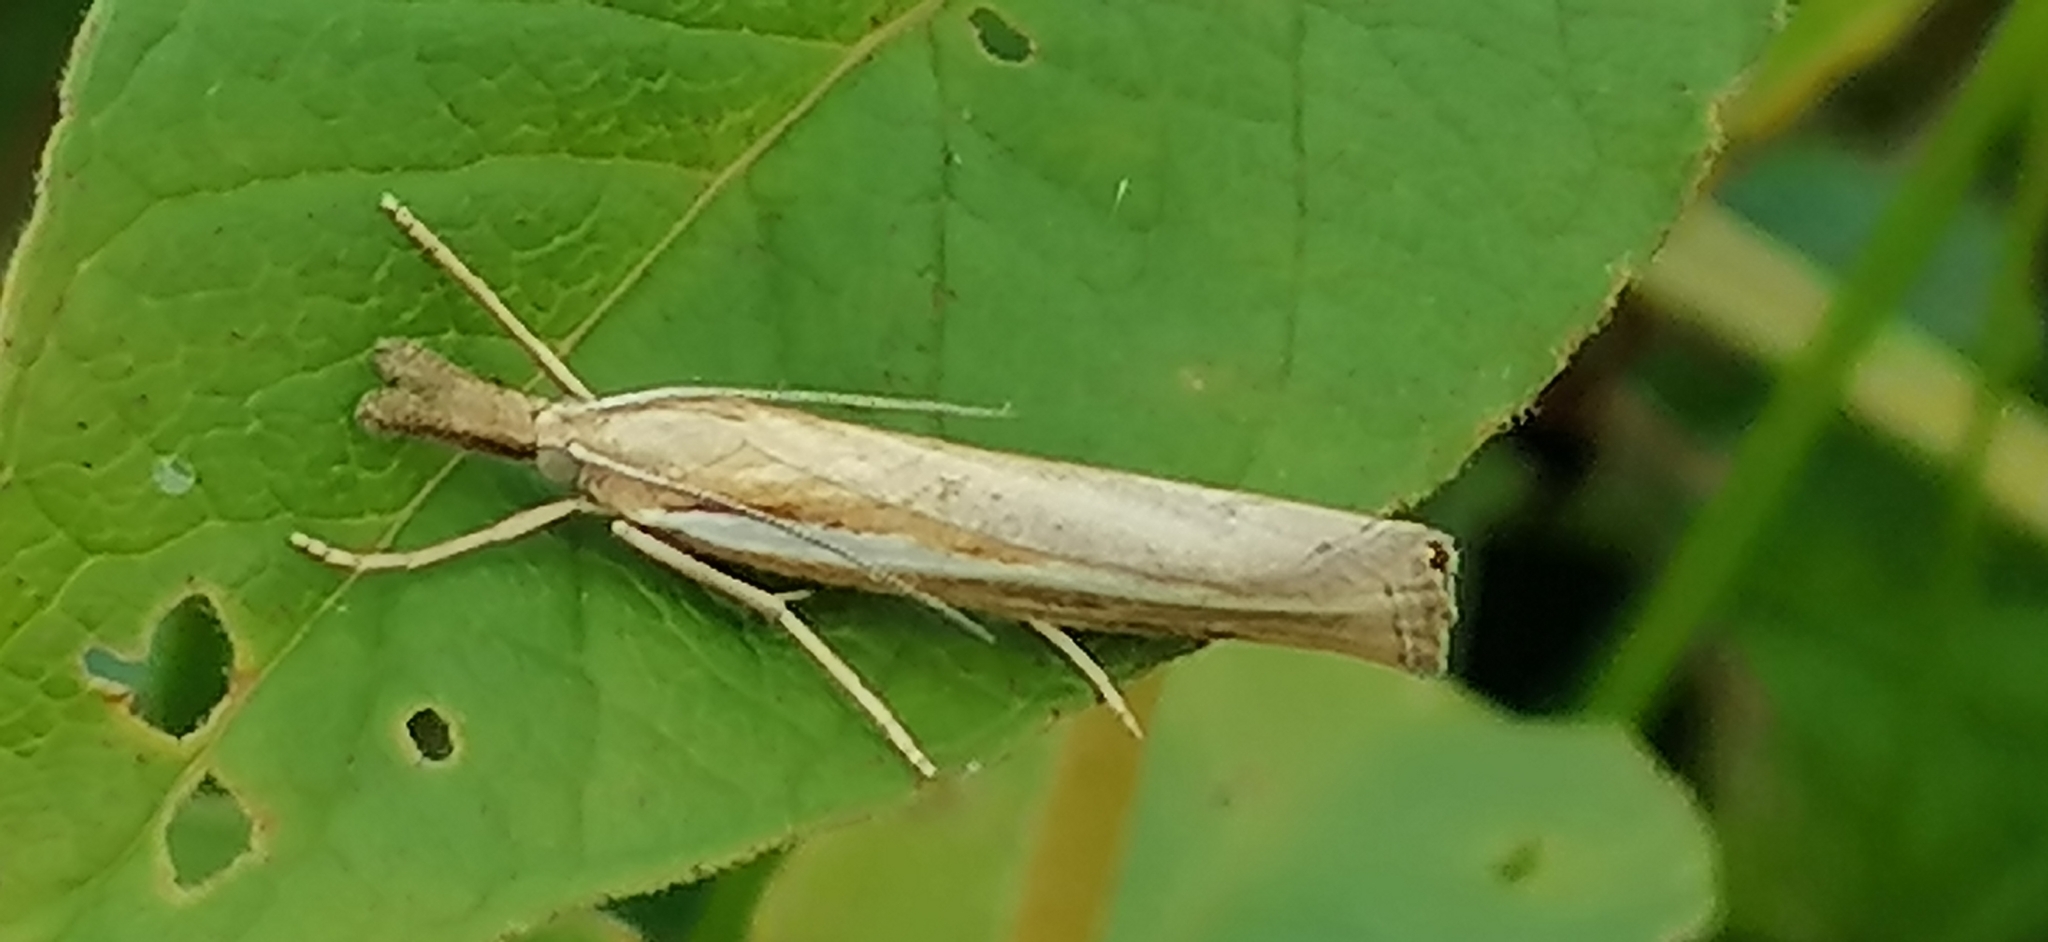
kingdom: Animalia
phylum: Arthropoda
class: Insecta
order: Lepidoptera
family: Crambidae
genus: Agriphila
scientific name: Agriphila tristellus
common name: Common grass-veneer
